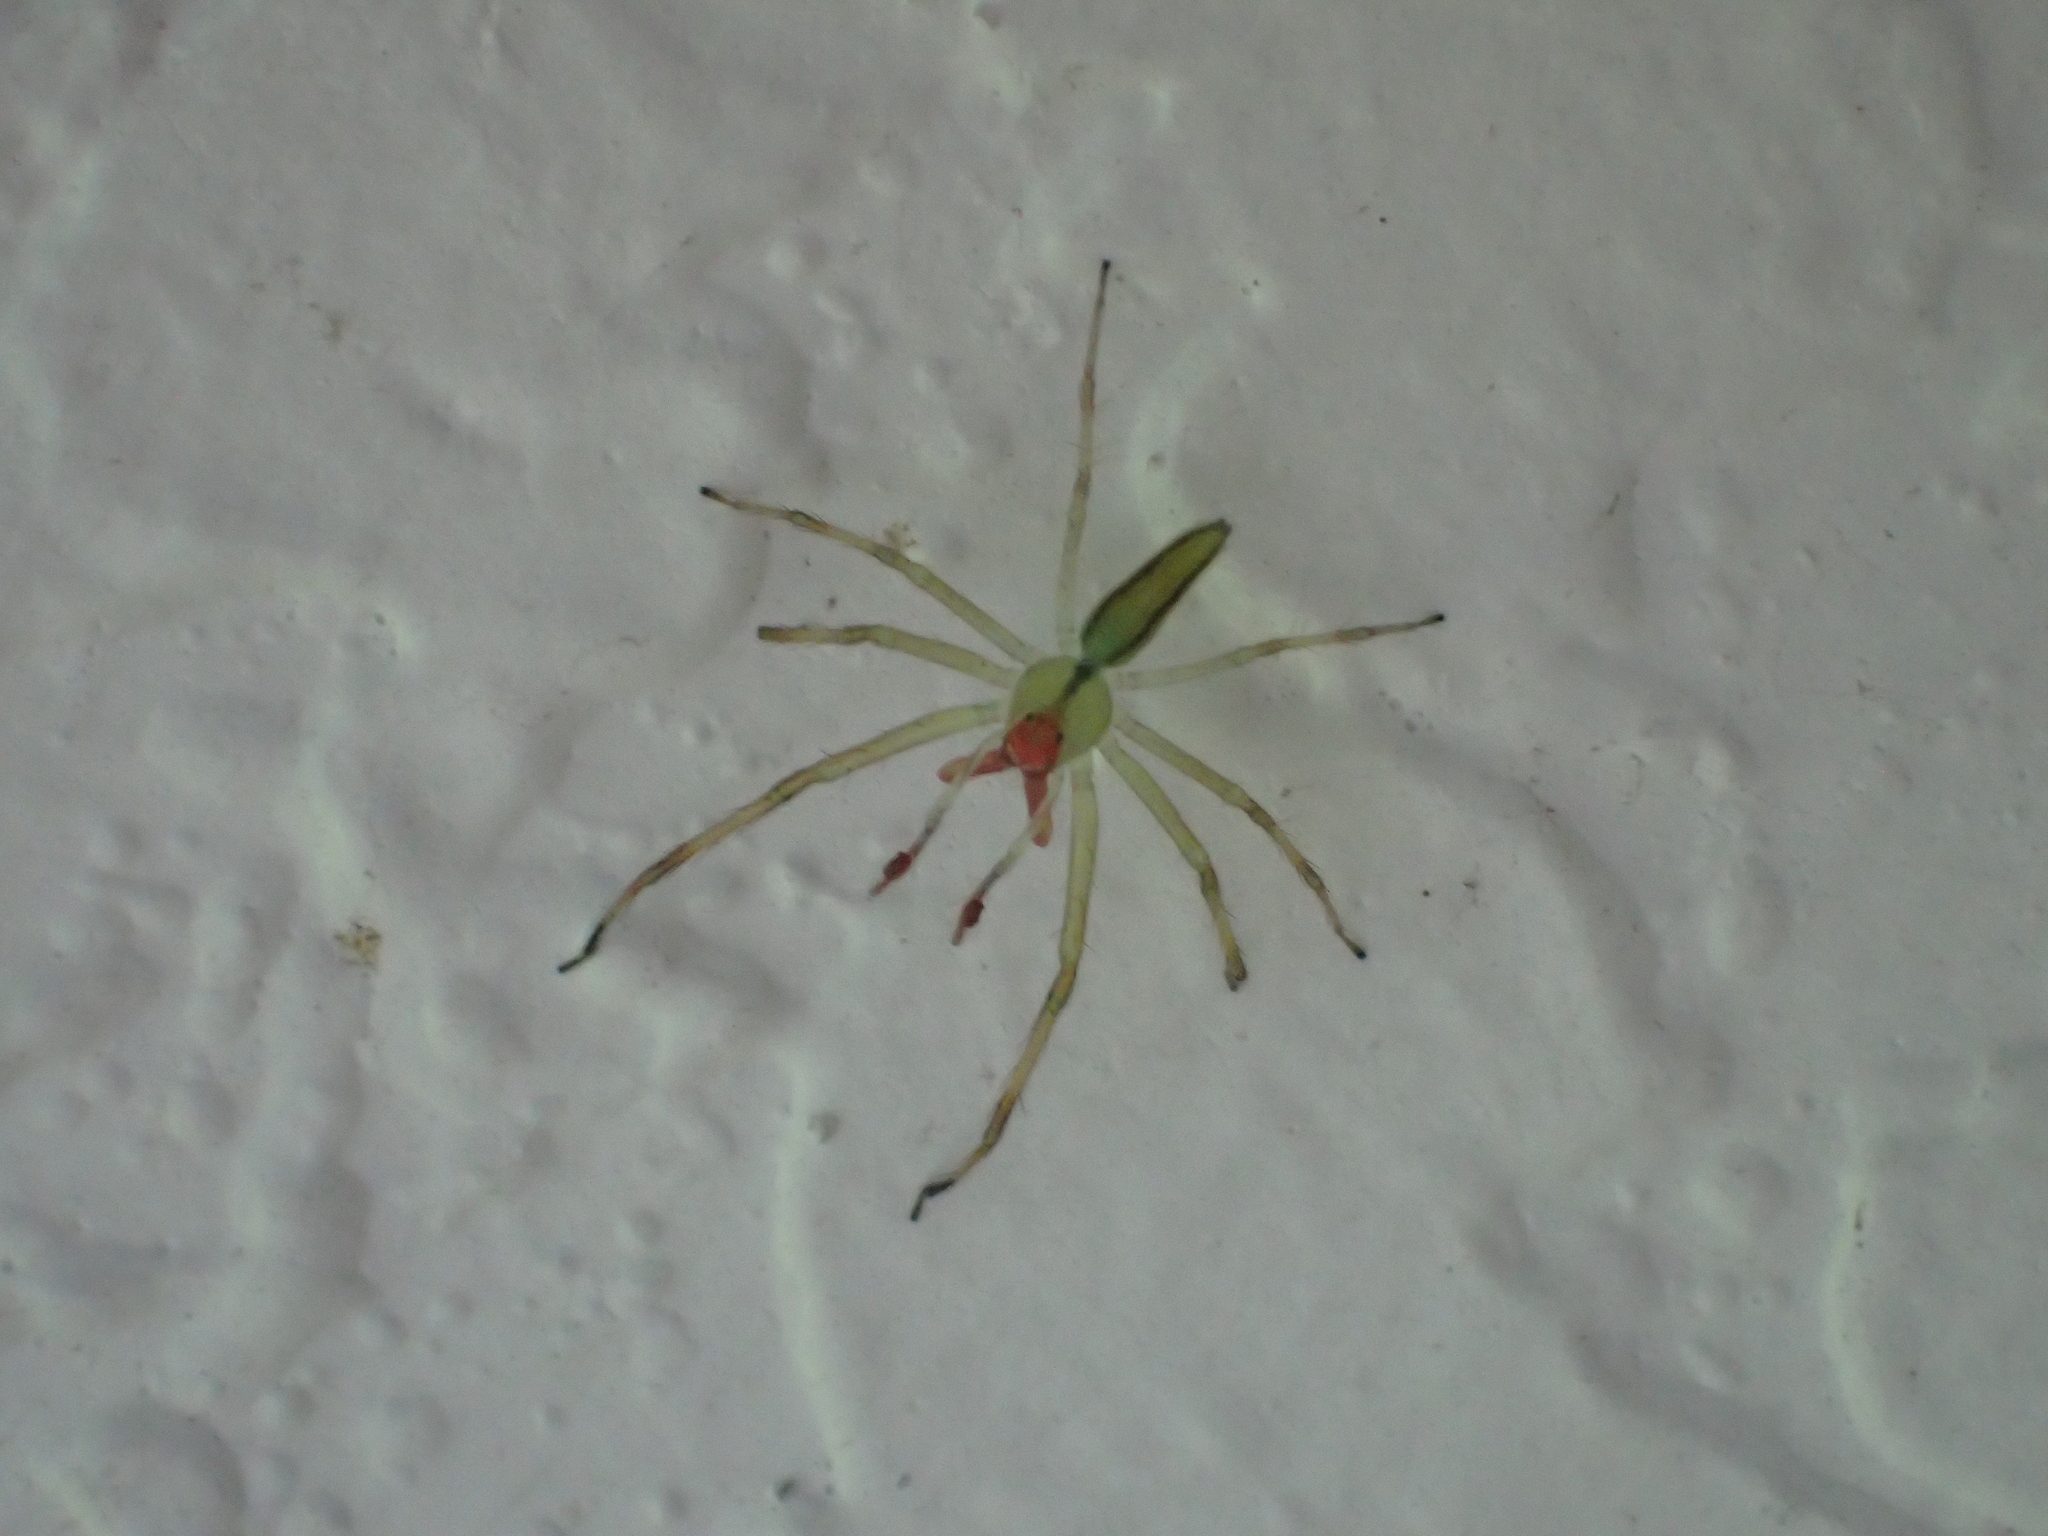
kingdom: Animalia
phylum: Arthropoda
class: Arachnida
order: Araneae
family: Salticidae
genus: Lyssomanes
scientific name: Lyssomanes viridis
